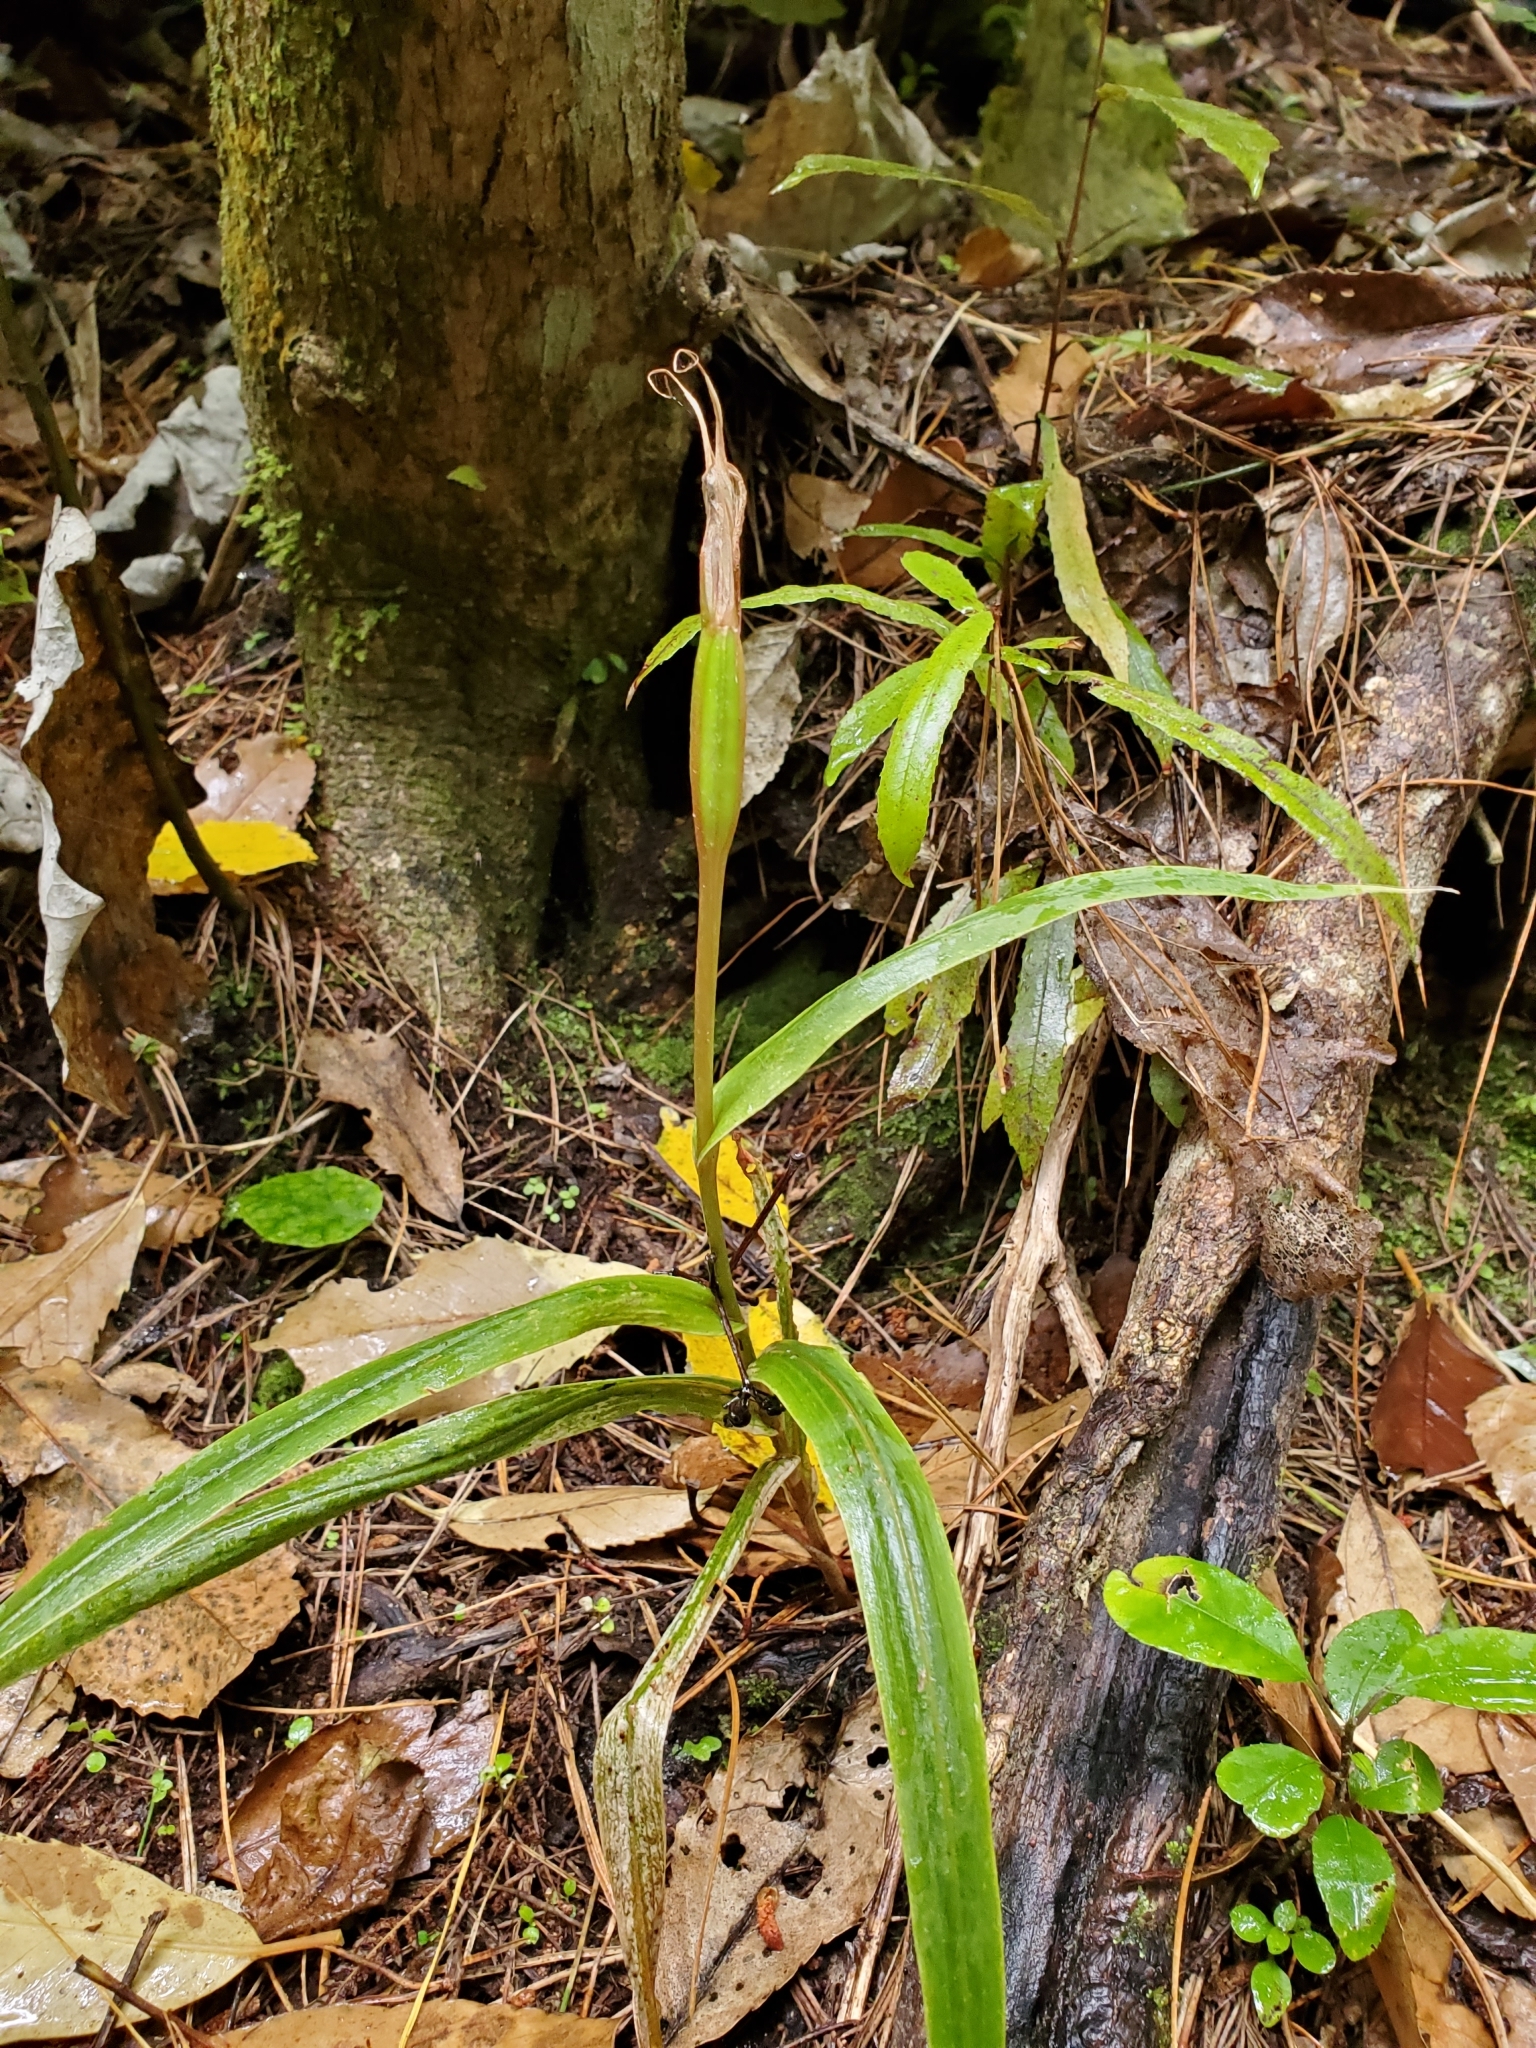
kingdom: Plantae
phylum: Tracheophyta
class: Liliopsida
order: Asparagales
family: Orchidaceae
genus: Pterostylis
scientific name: Pterostylis cardiostigma
